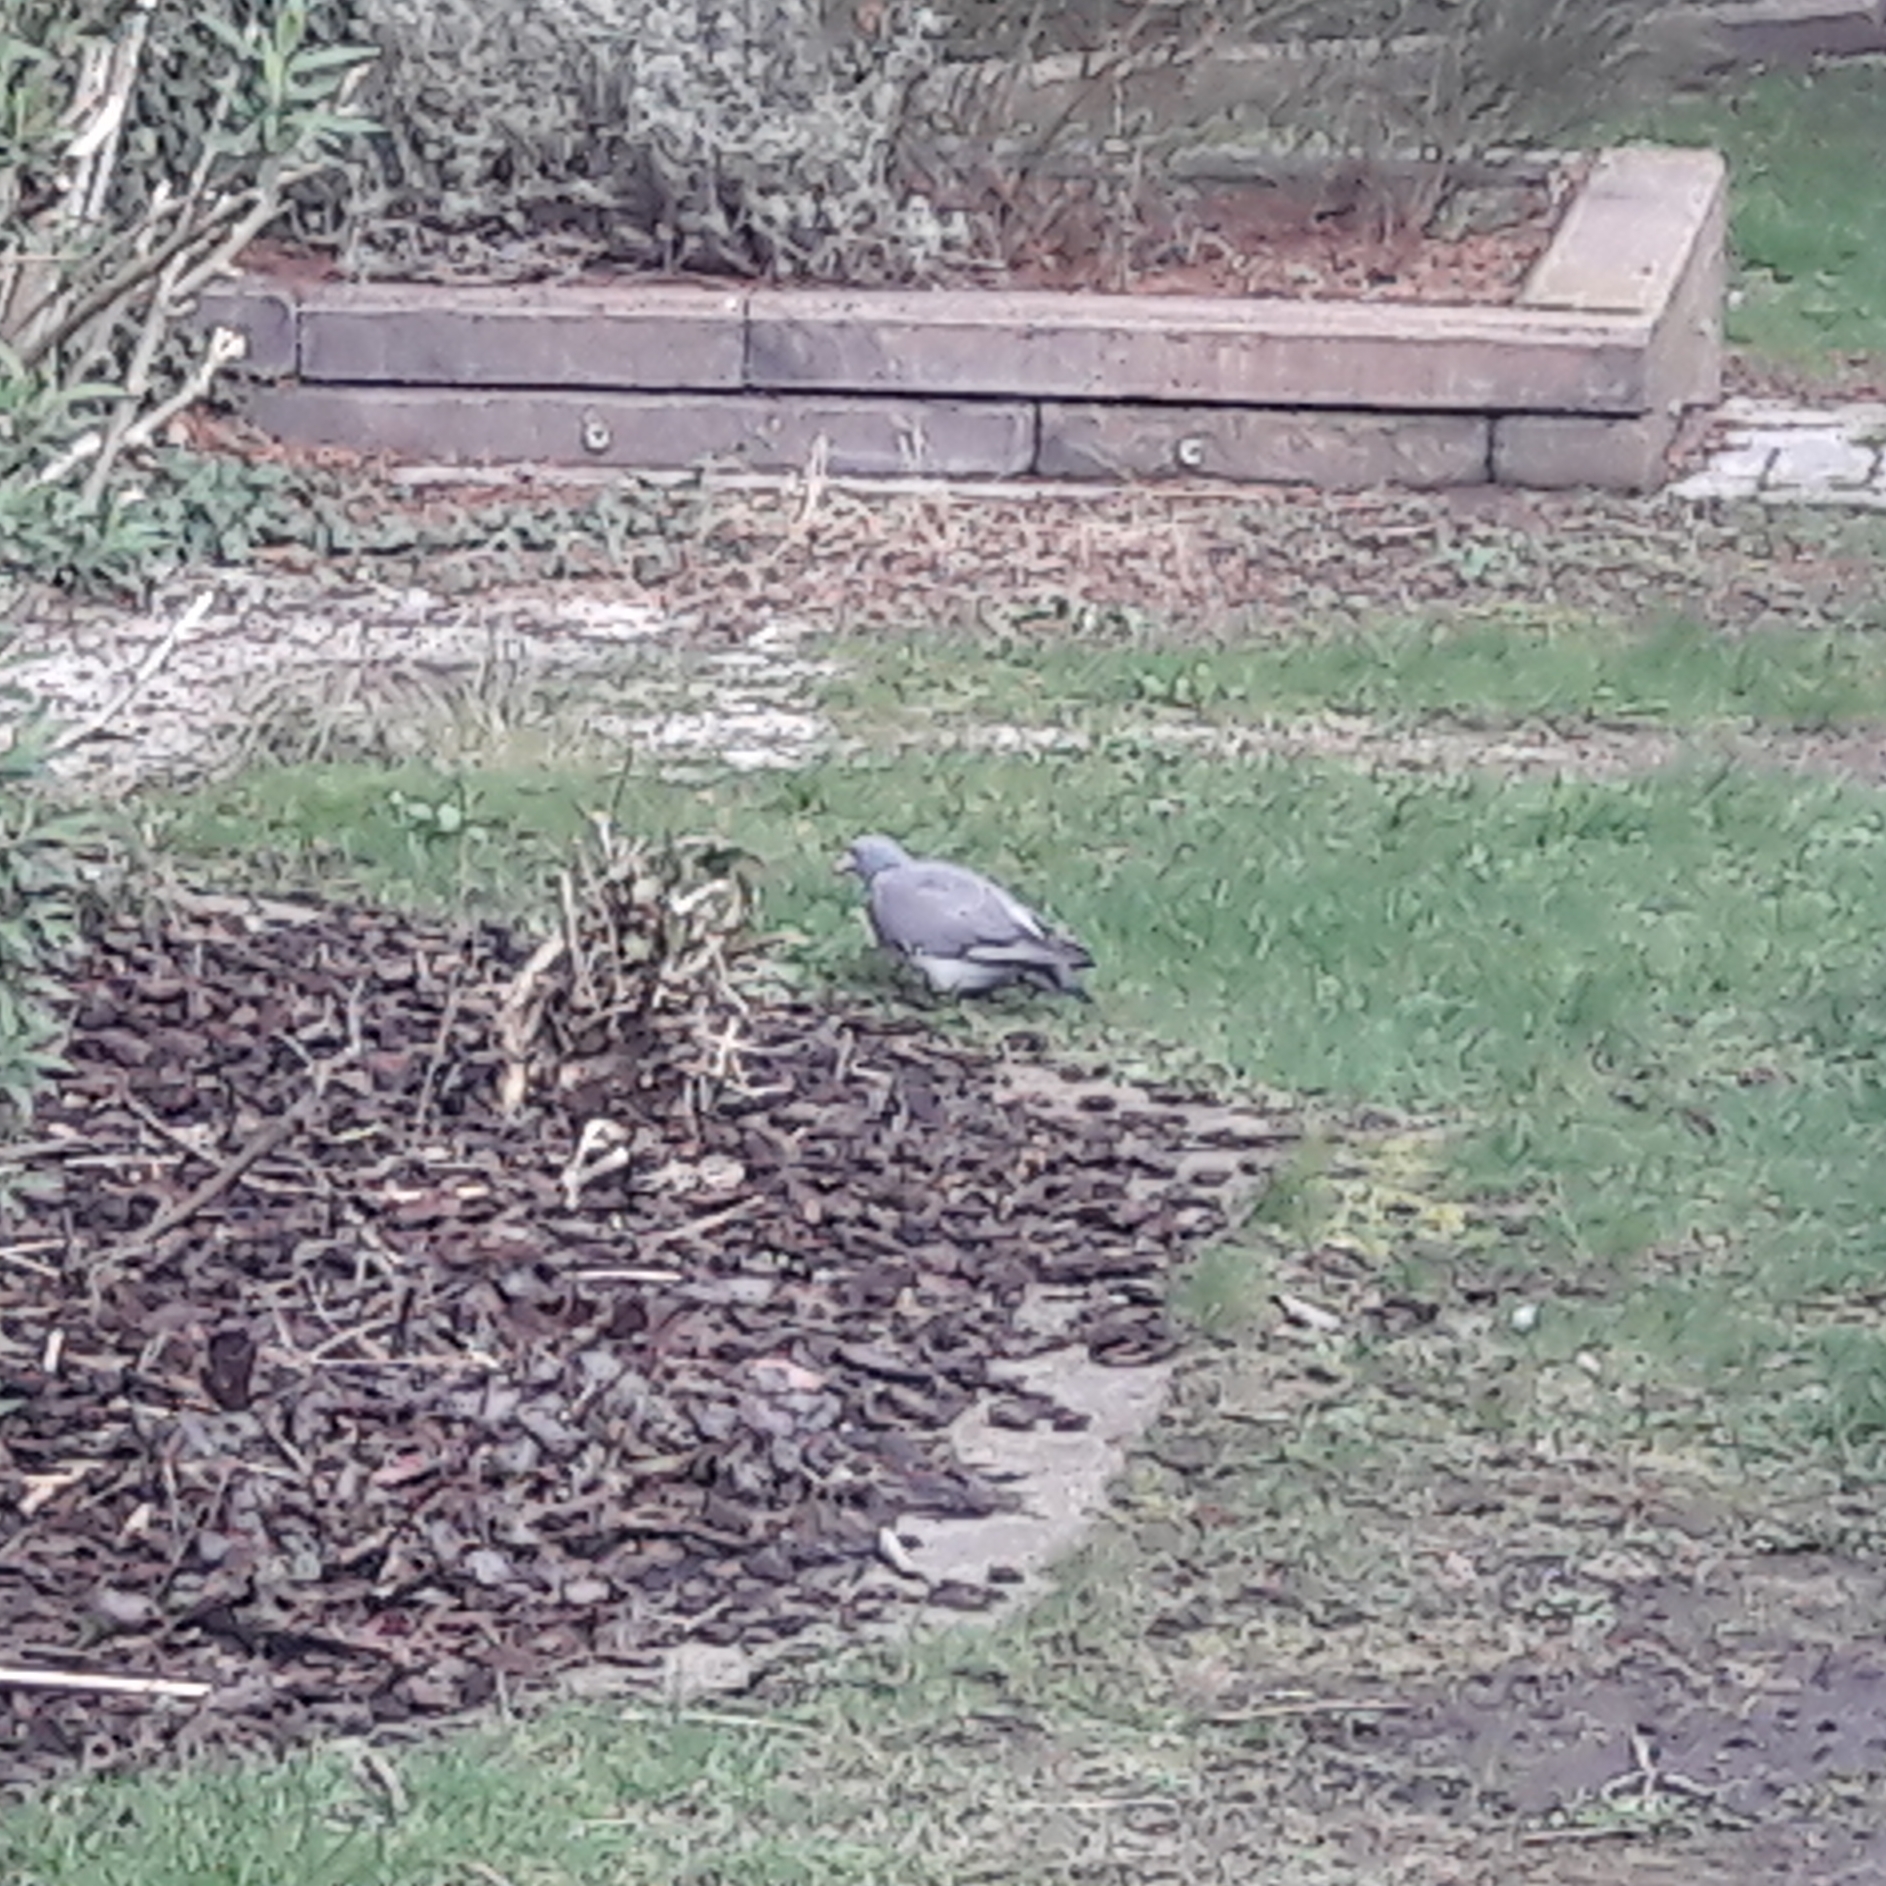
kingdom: Animalia
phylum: Chordata
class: Aves
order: Columbiformes
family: Columbidae
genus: Columba
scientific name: Columba palumbus
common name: Common wood pigeon
